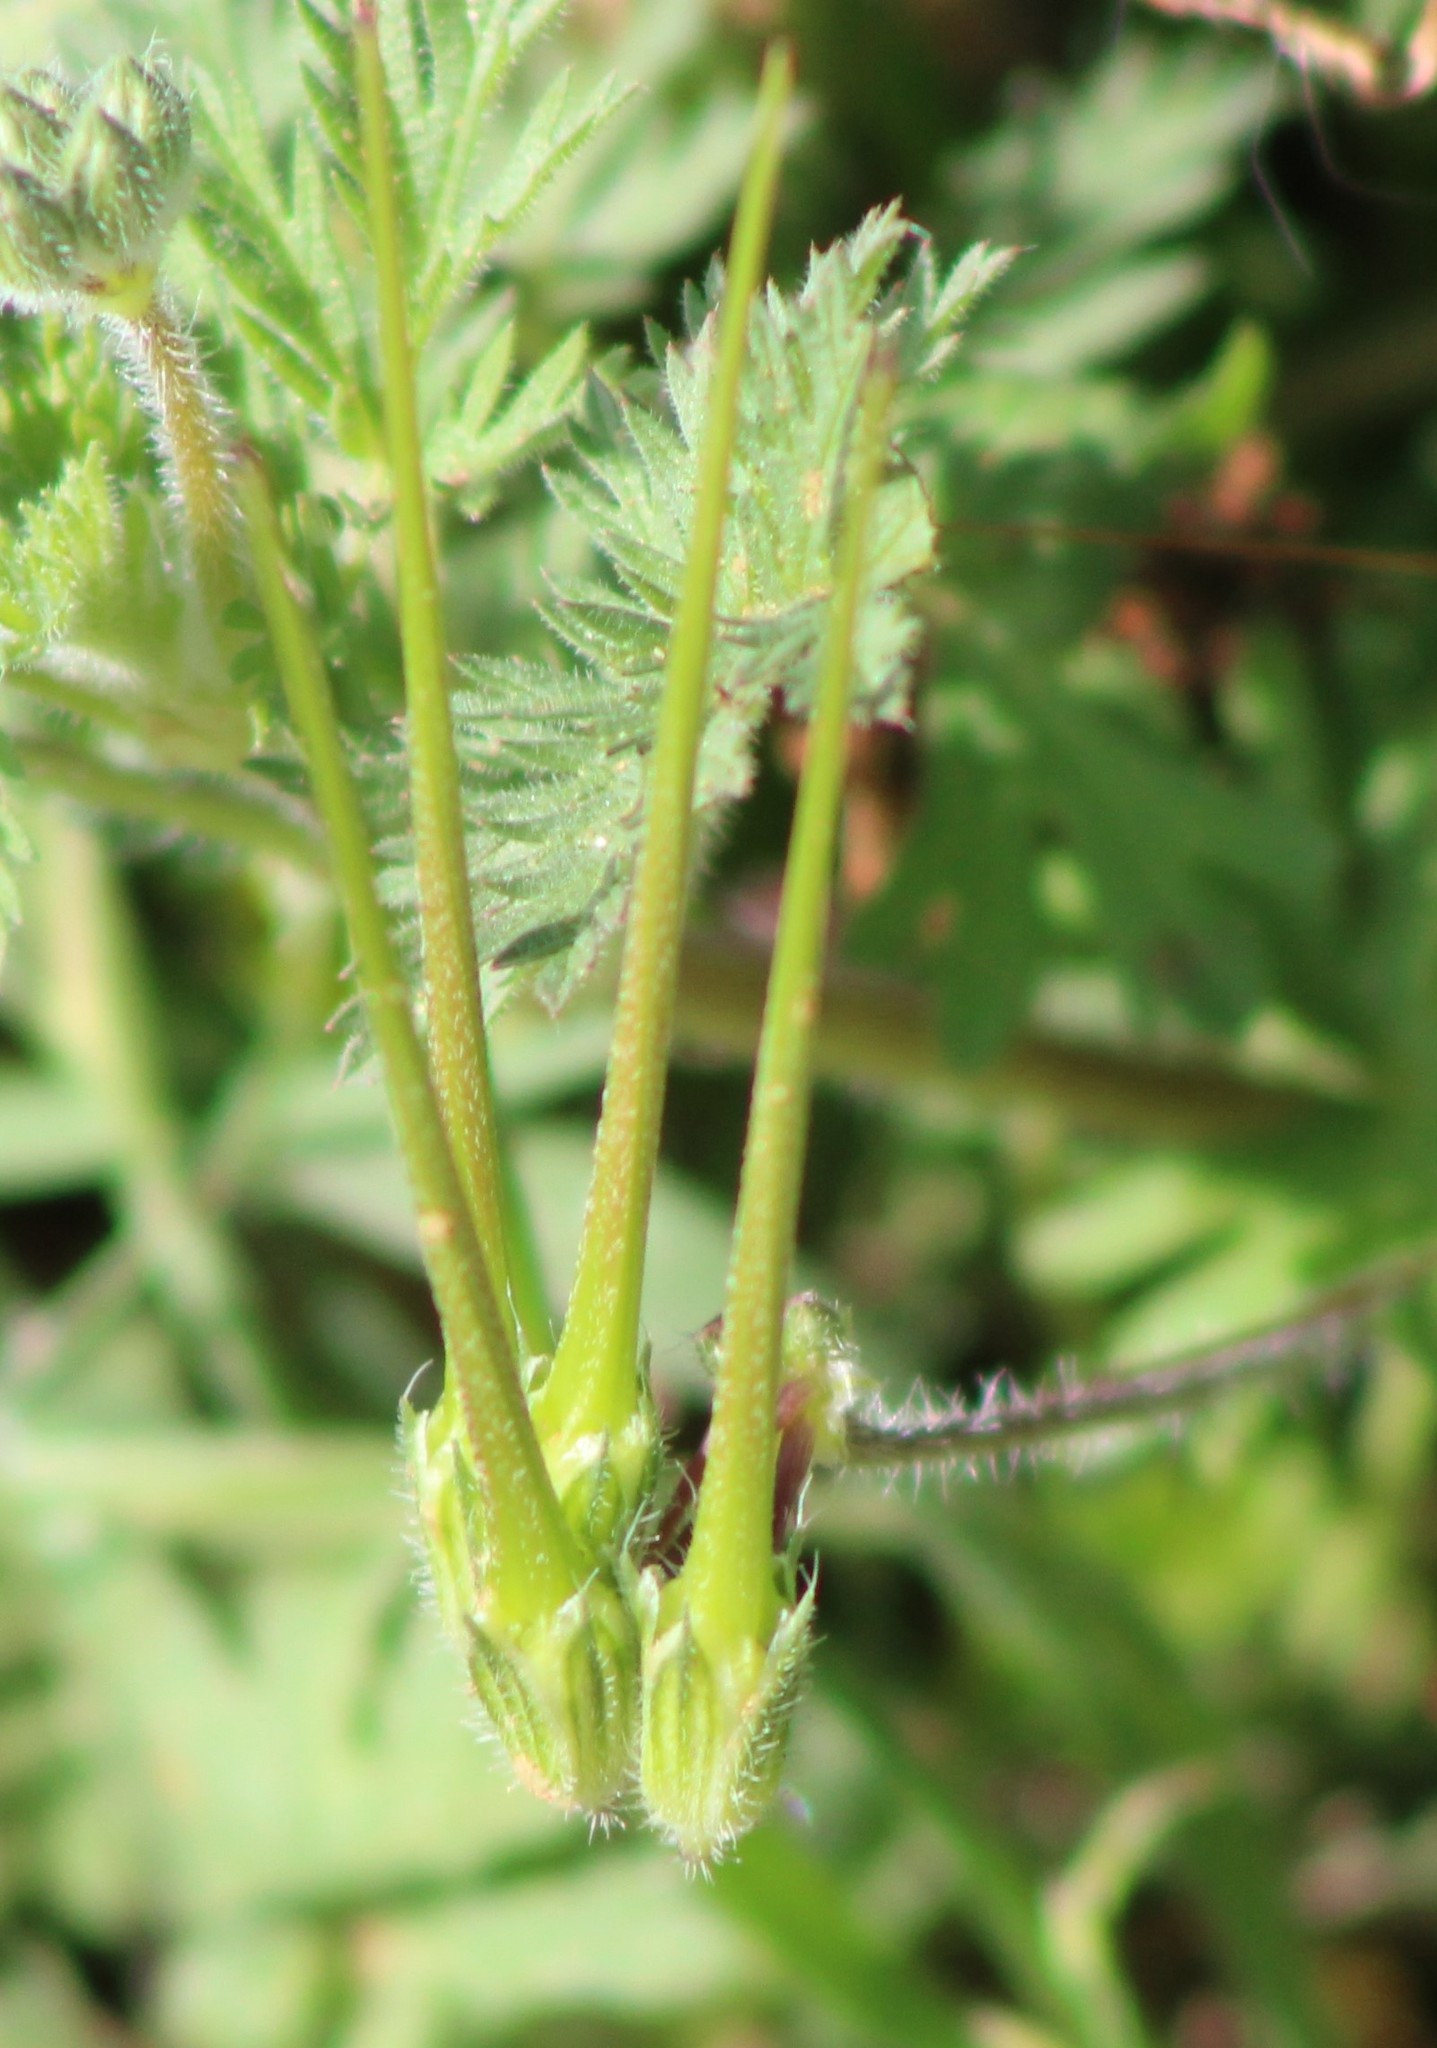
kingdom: Plantae
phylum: Tracheophyta
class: Magnoliopsida
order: Geraniales
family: Geraniaceae
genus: Erodium
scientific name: Erodium cicutarium
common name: Common stork's-bill
